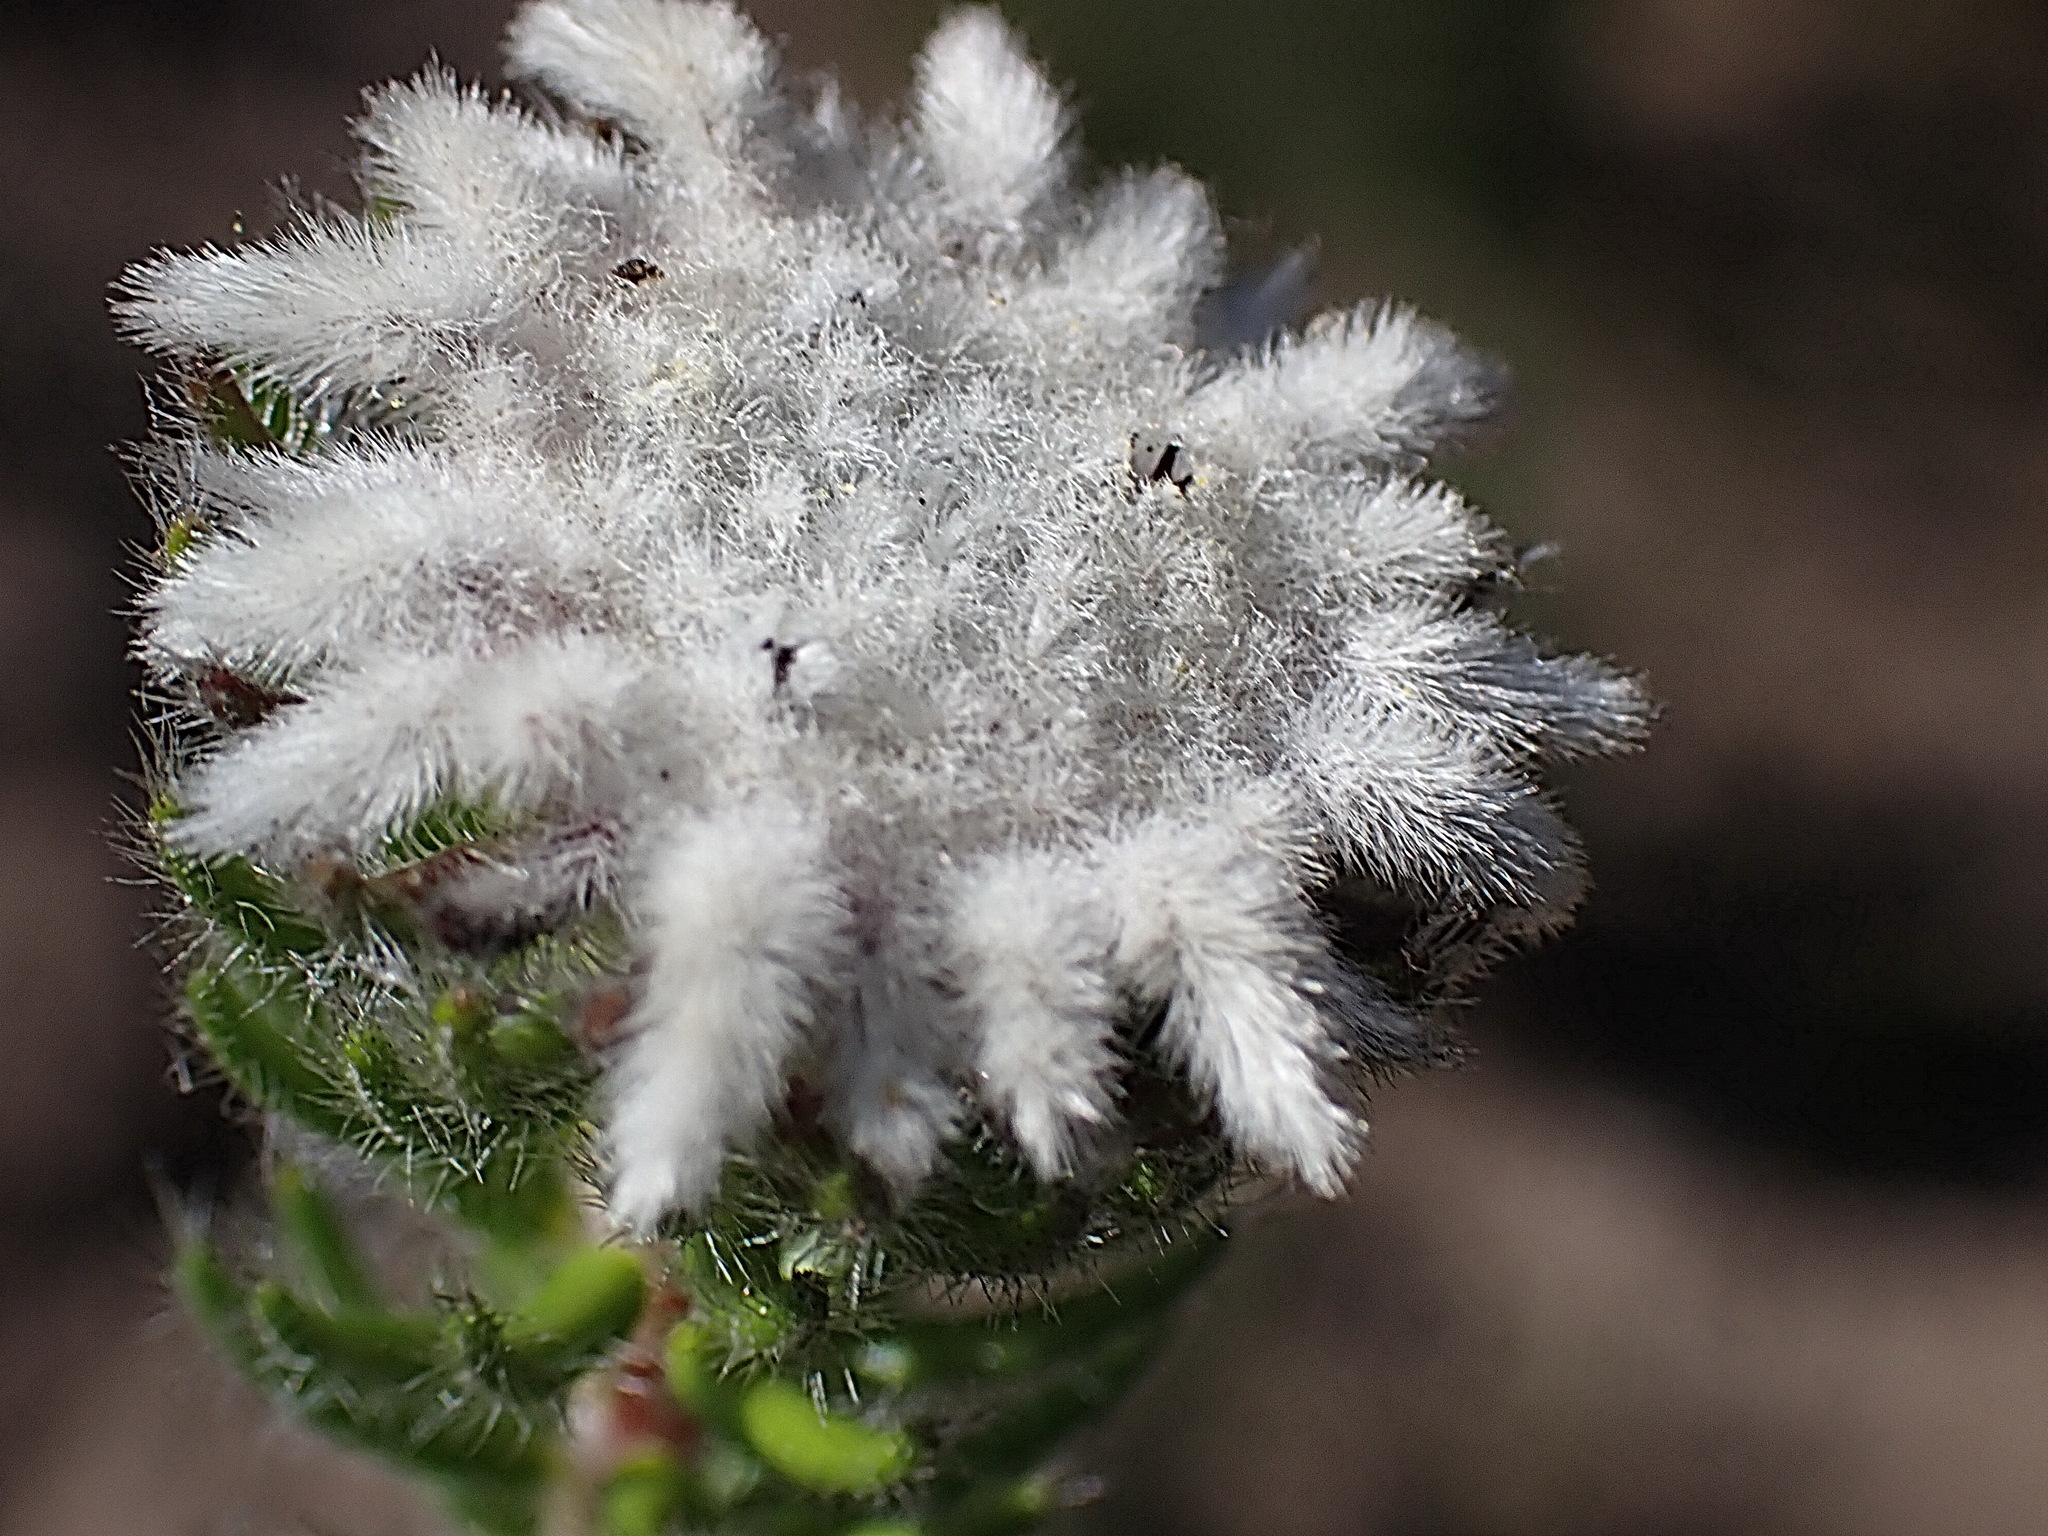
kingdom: Plantae
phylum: Tracheophyta
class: Magnoliopsida
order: Rosales
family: Rhamnaceae
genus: Phylica
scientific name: Phylica curvifolia
